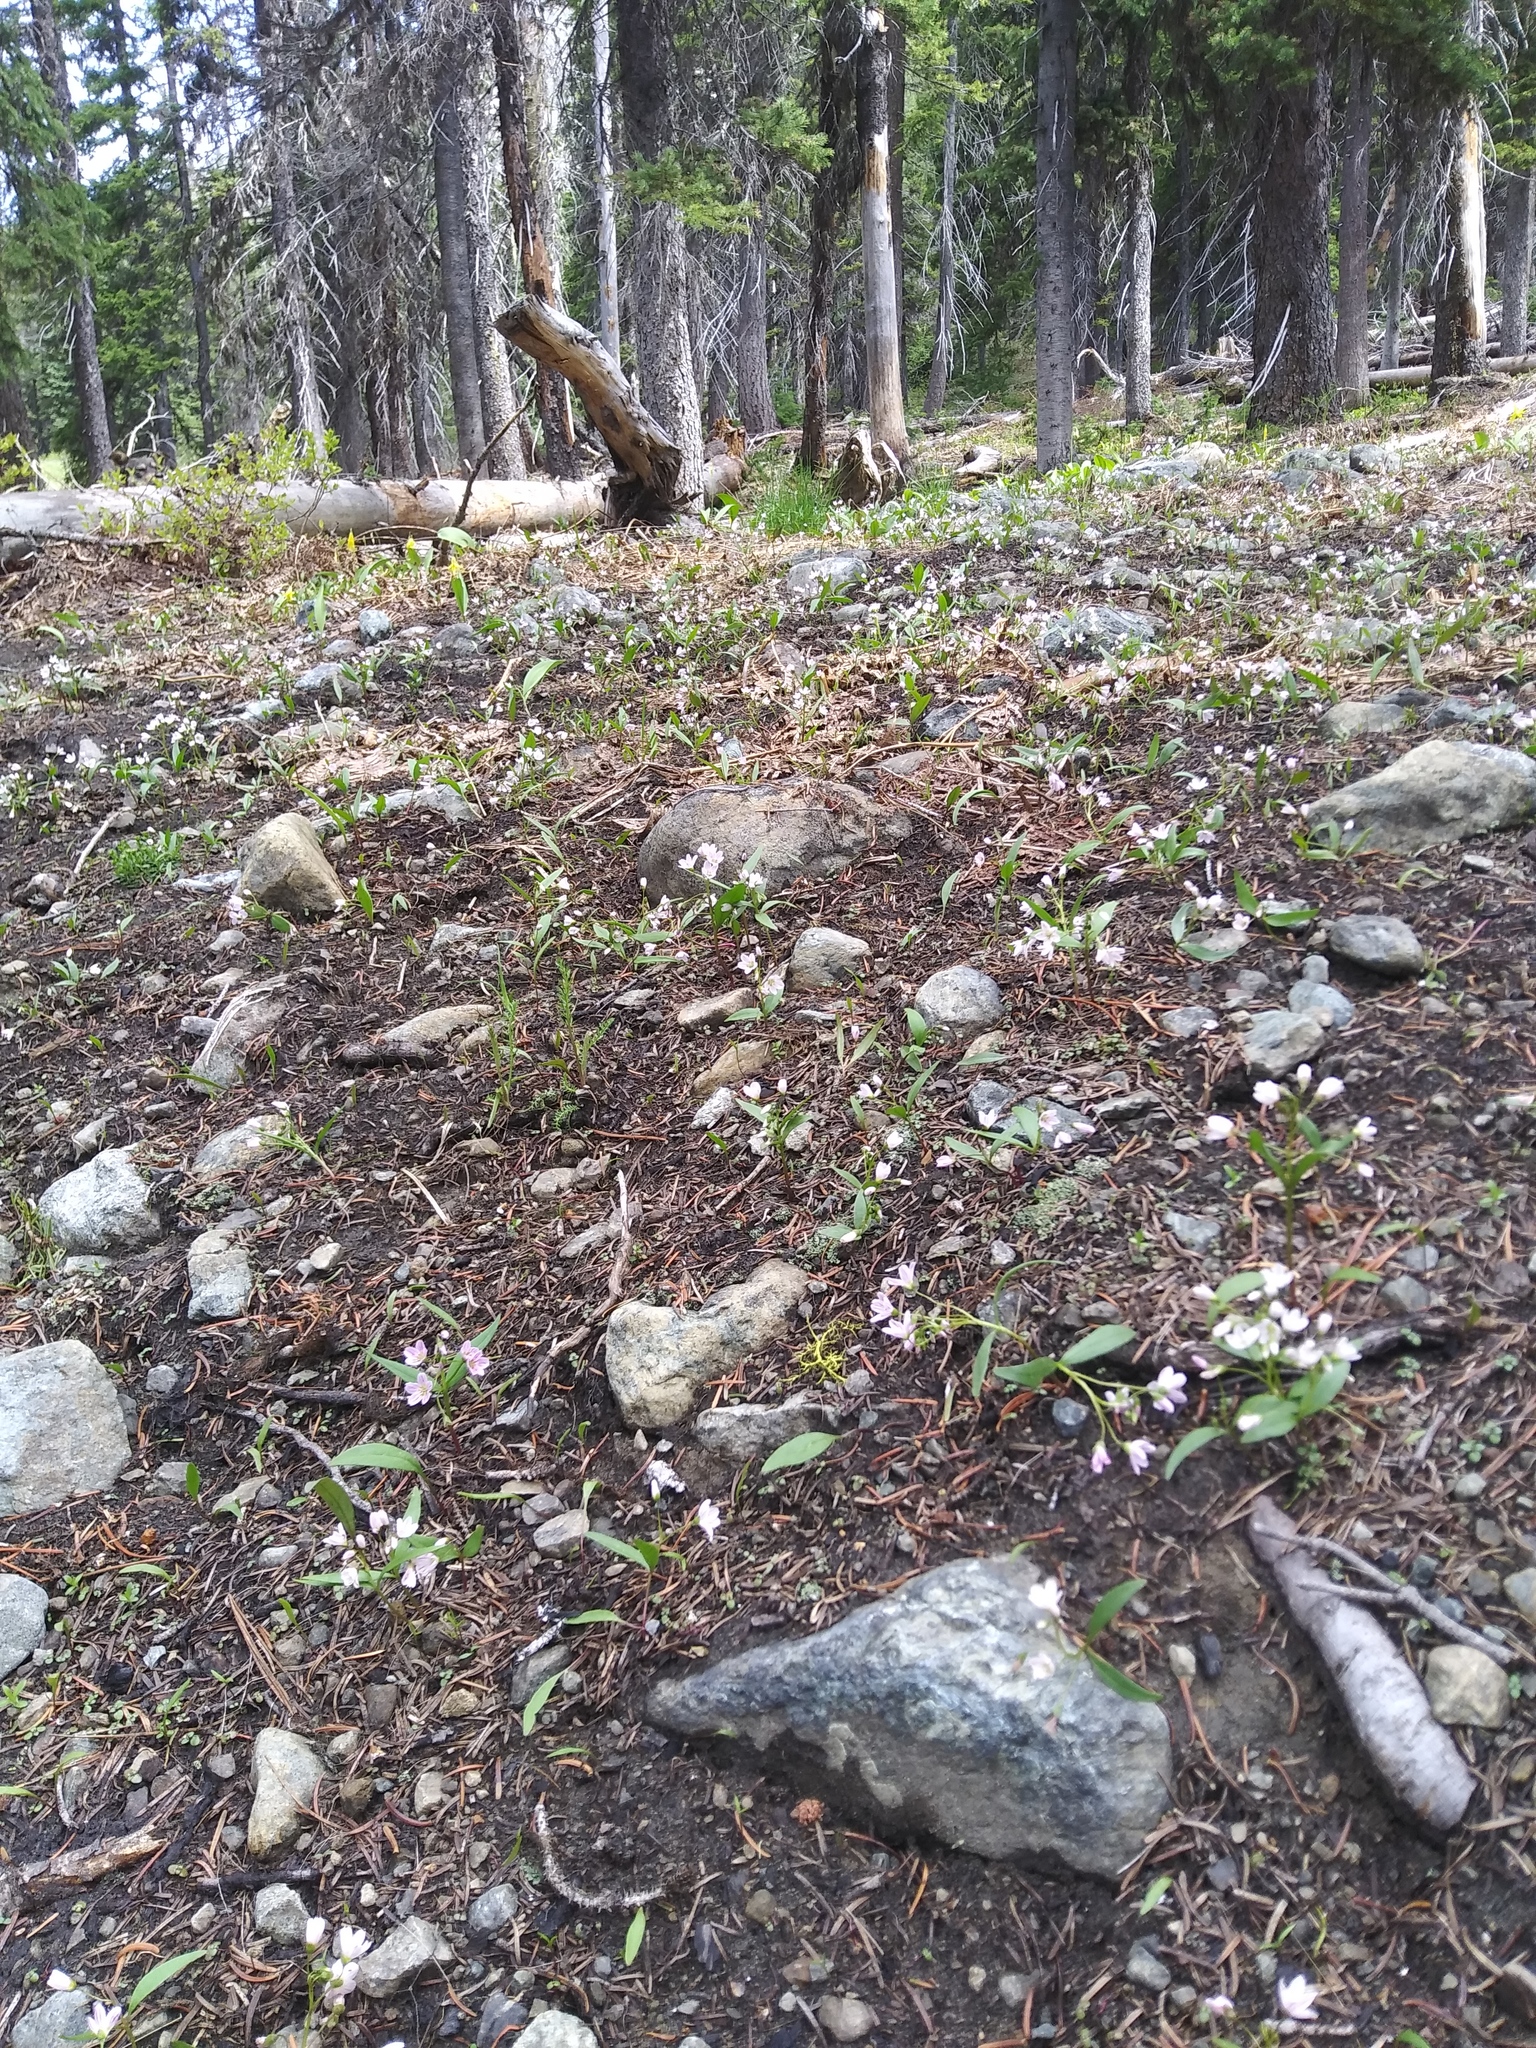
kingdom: Plantae
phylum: Tracheophyta
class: Magnoliopsida
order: Caryophyllales
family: Montiaceae
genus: Claytonia
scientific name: Claytonia lanceolata
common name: Western spring-beauty
